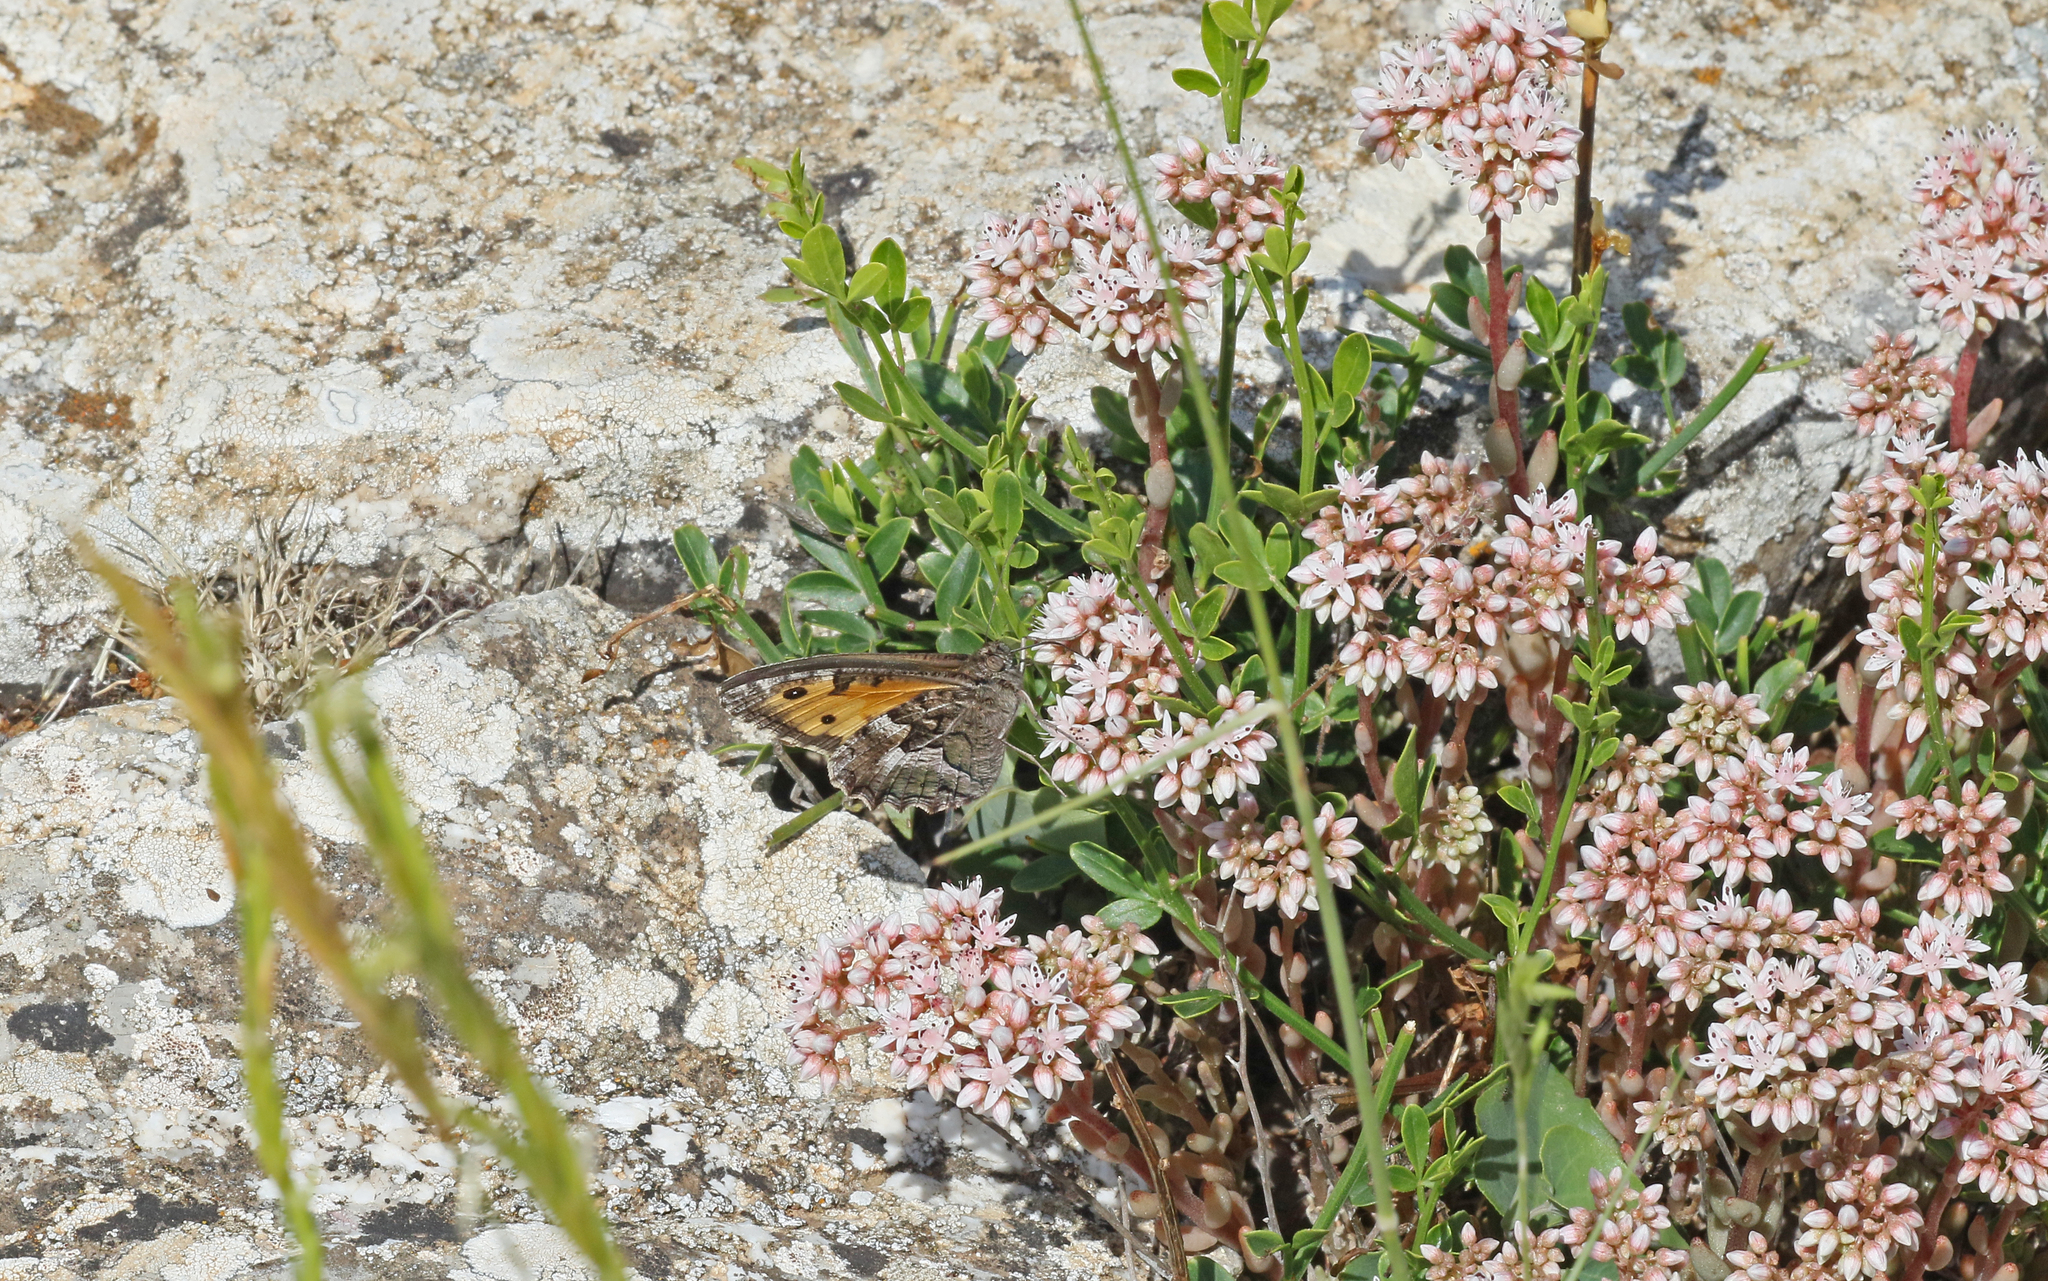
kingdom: Animalia
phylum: Arthropoda
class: Insecta
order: Lepidoptera
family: Nymphalidae
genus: Hipparchia
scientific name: Hipparchia semele
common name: Grayling
